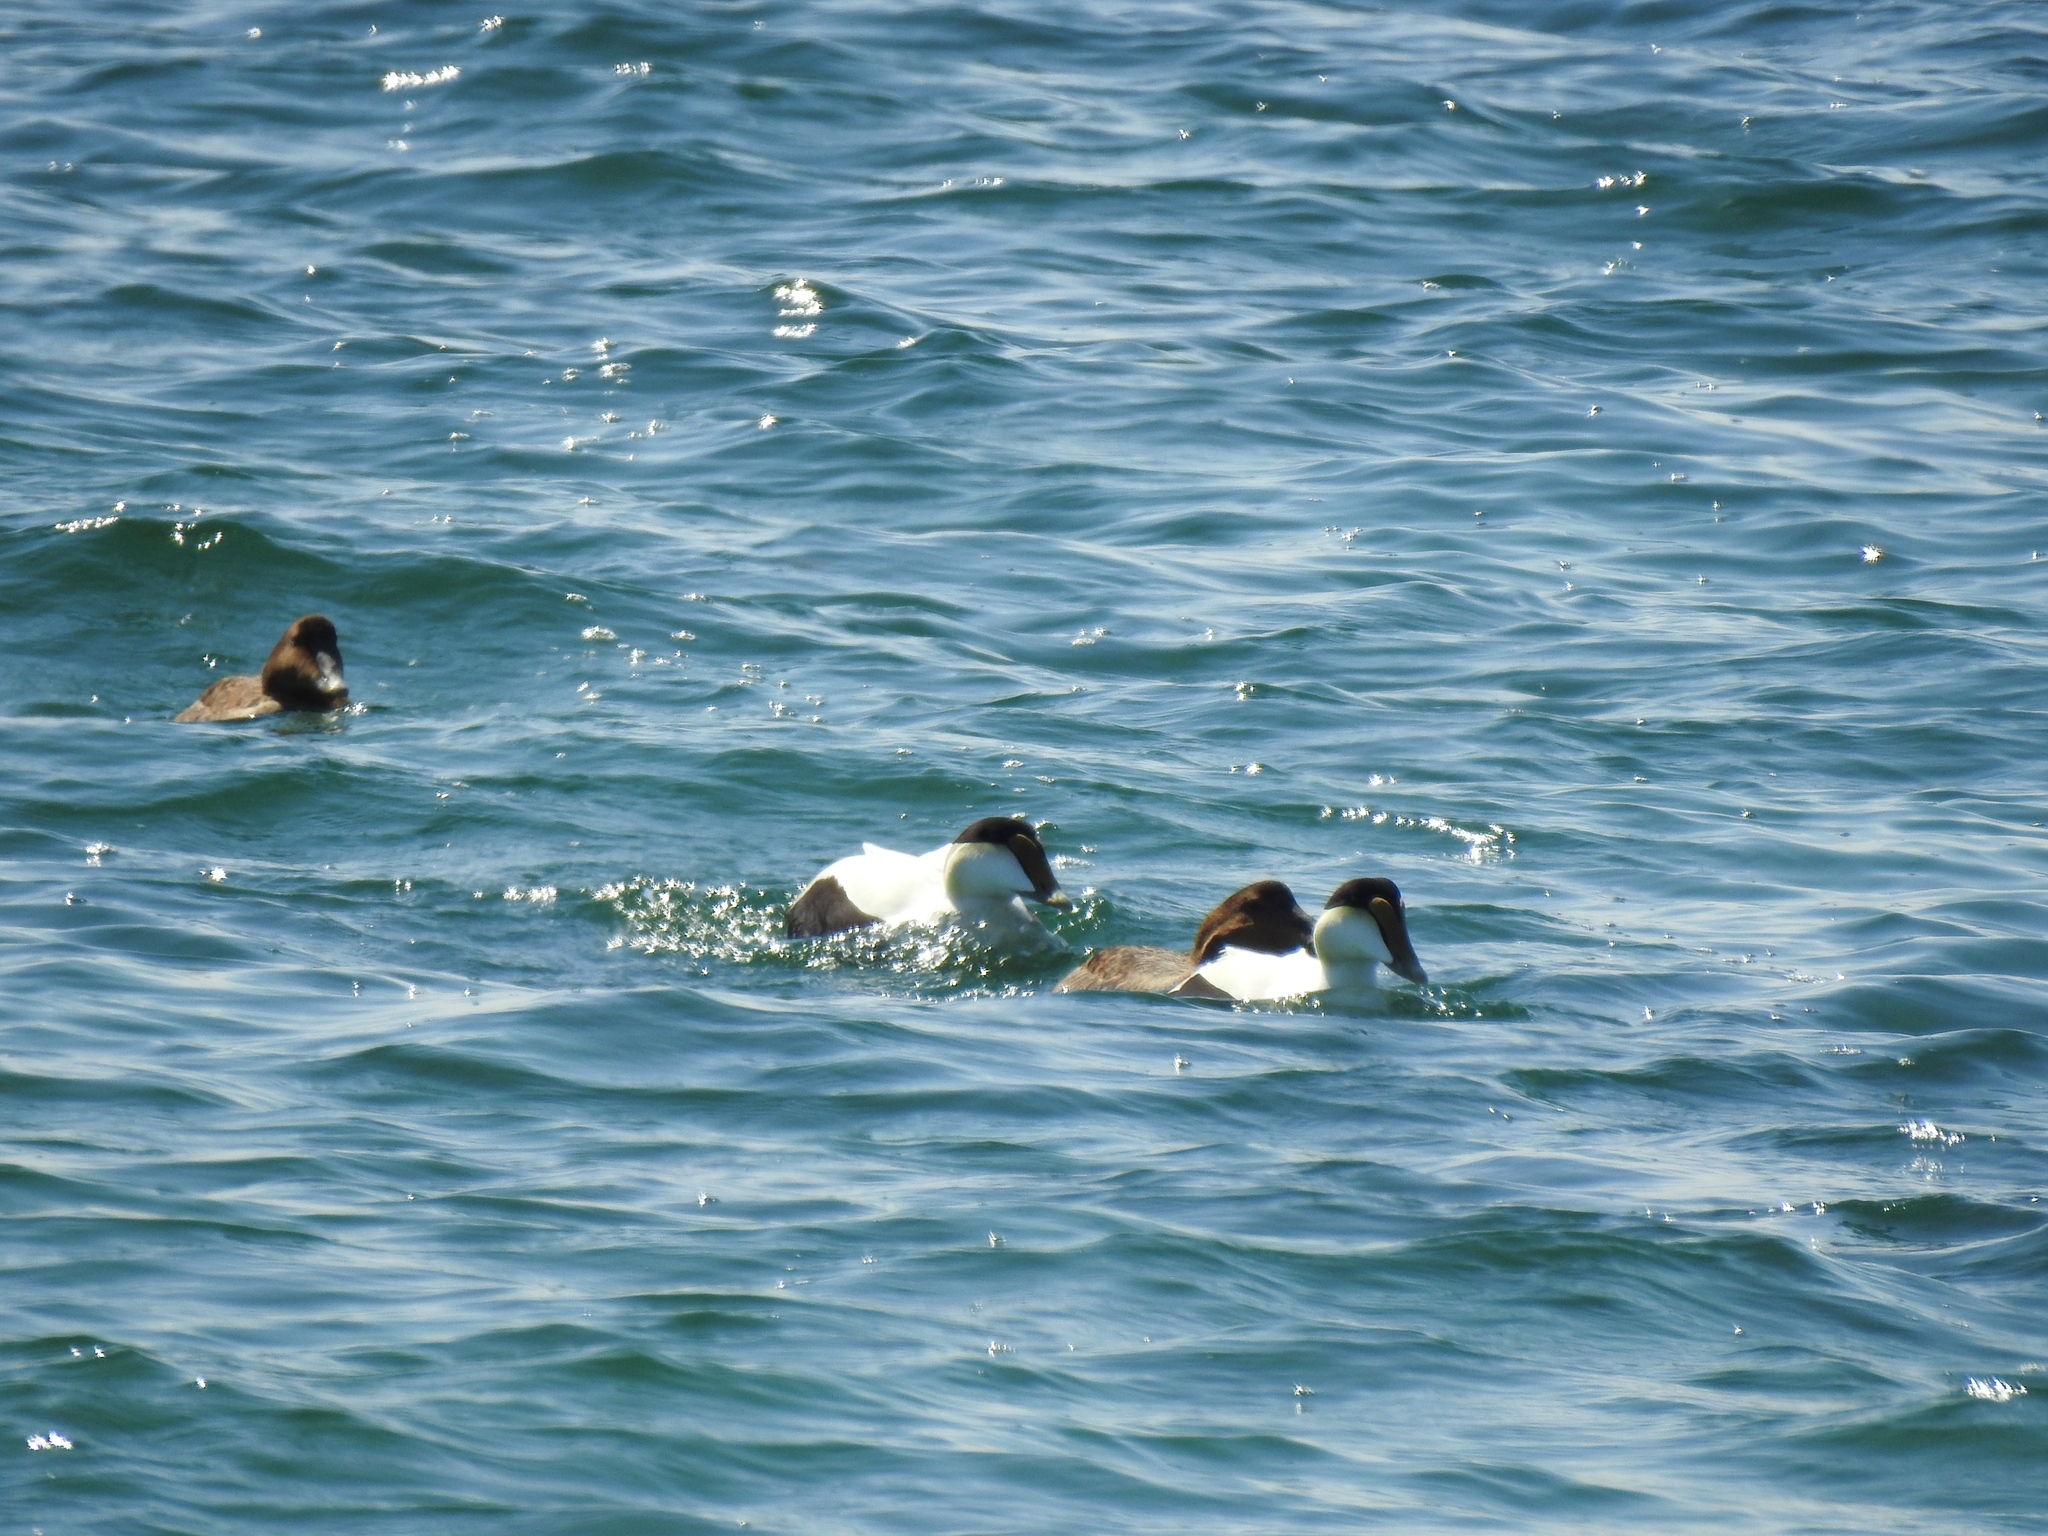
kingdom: Animalia
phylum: Chordata
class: Aves
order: Anseriformes
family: Anatidae
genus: Somateria
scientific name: Somateria mollissima
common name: Common eider
